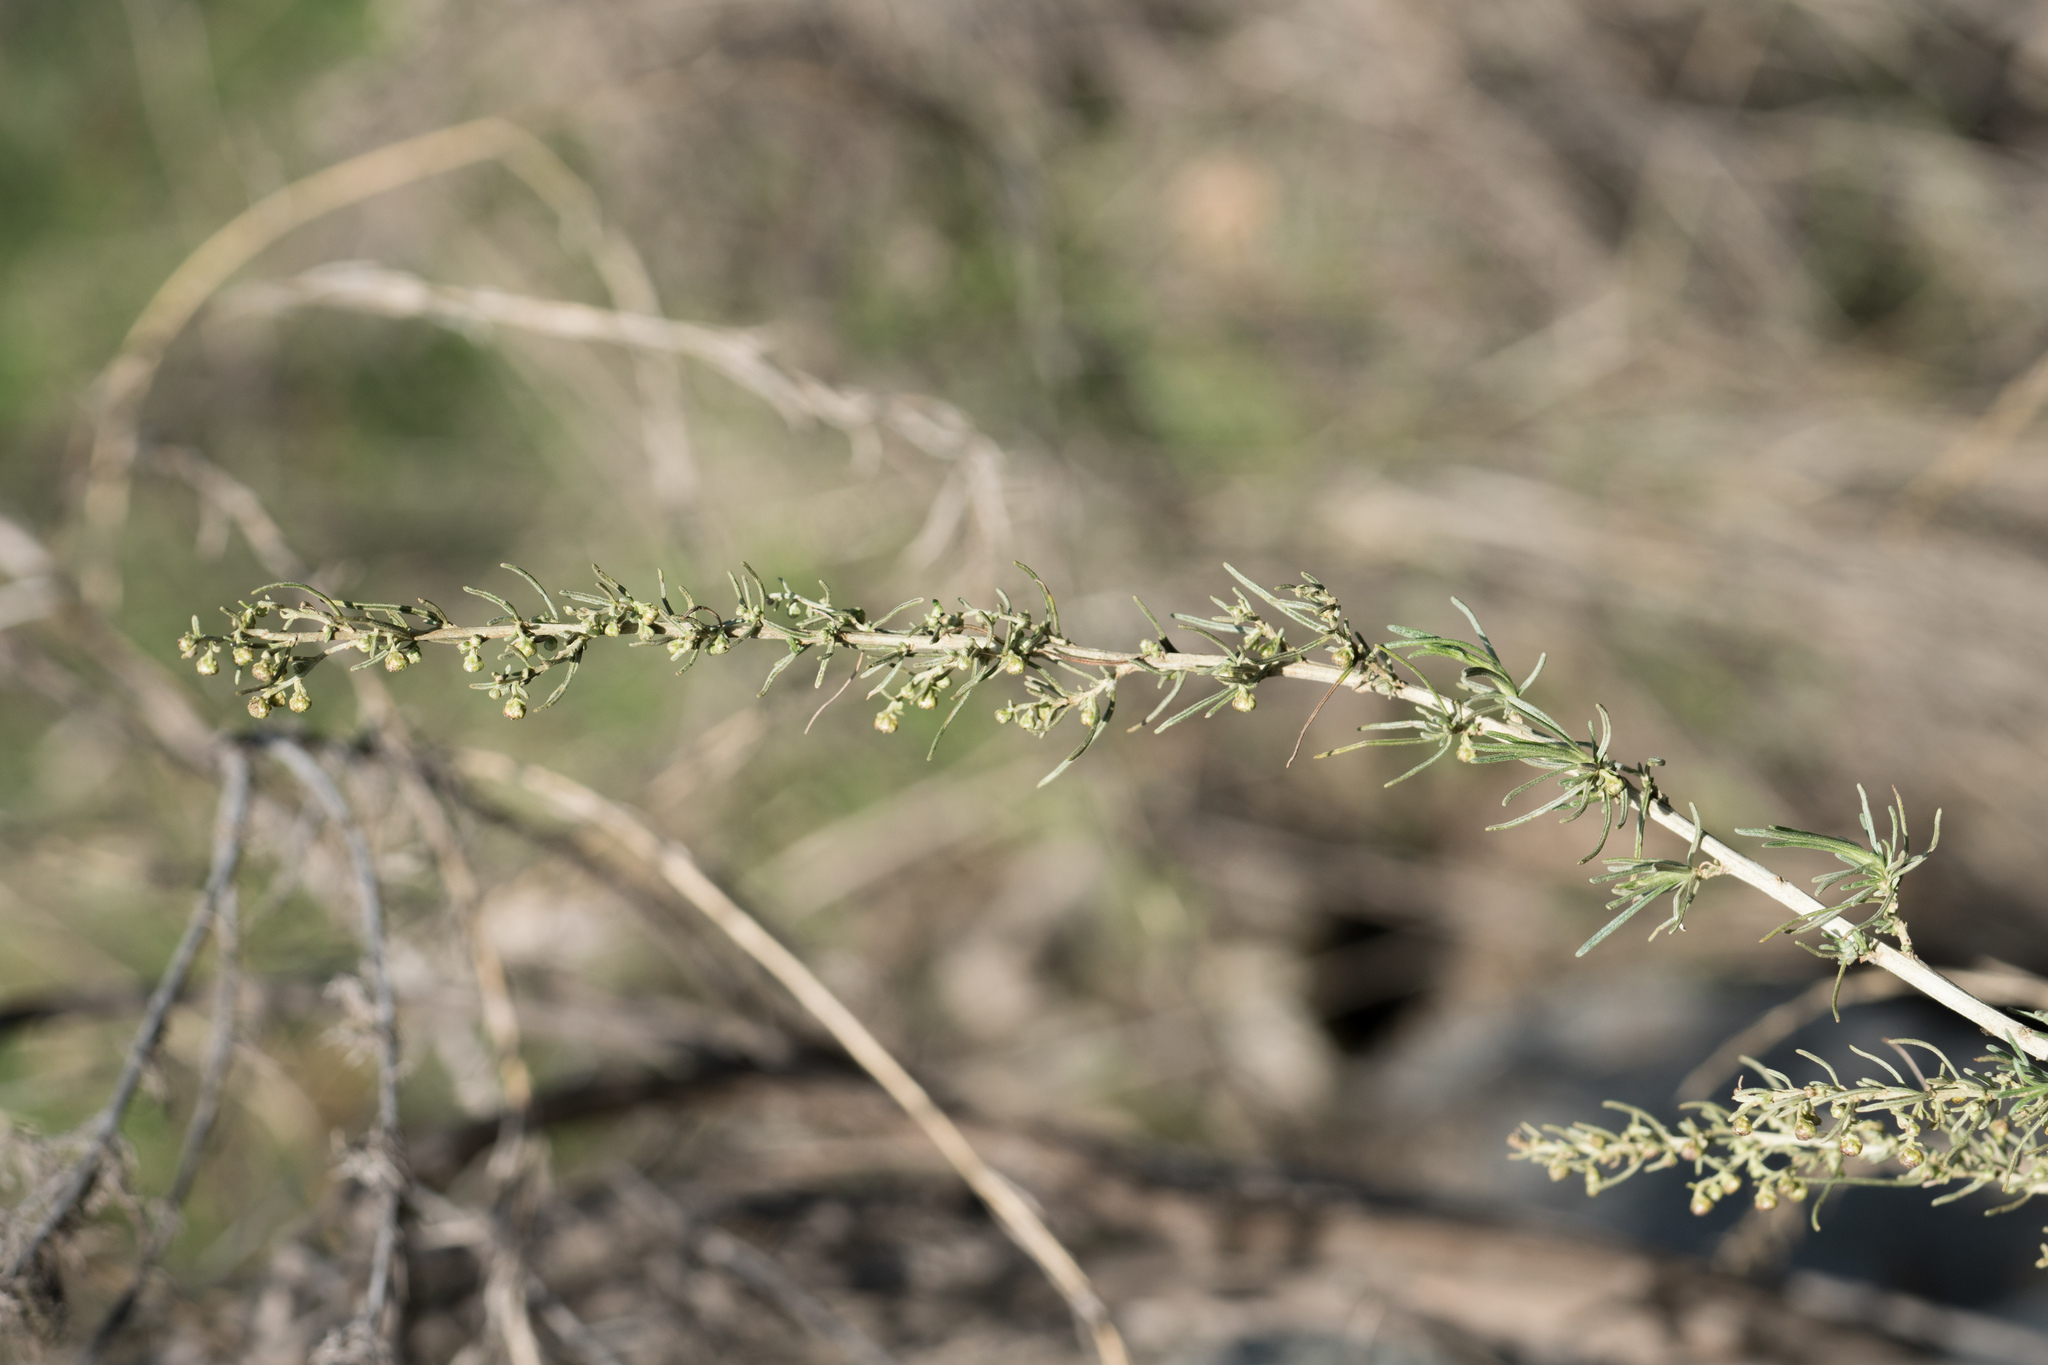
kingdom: Plantae
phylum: Tracheophyta
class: Magnoliopsida
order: Asterales
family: Asteraceae
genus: Artemisia
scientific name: Artemisia californica
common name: California sagebrush
